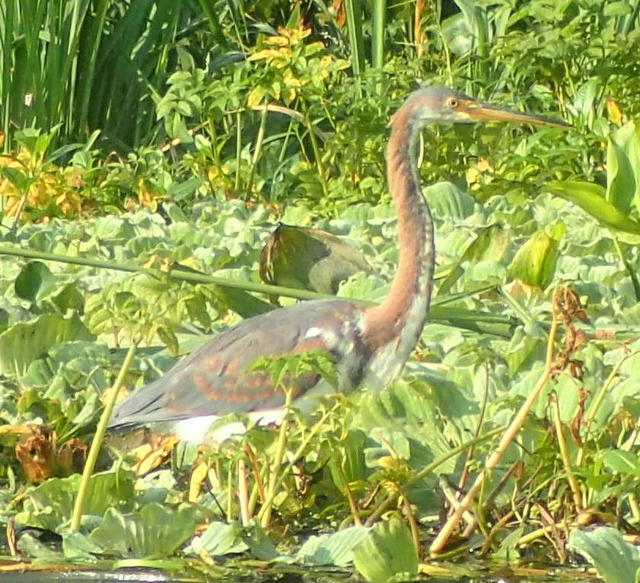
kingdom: Animalia
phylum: Chordata
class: Aves
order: Pelecaniformes
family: Ardeidae
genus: Egretta
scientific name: Egretta tricolor
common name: Tricolored heron
